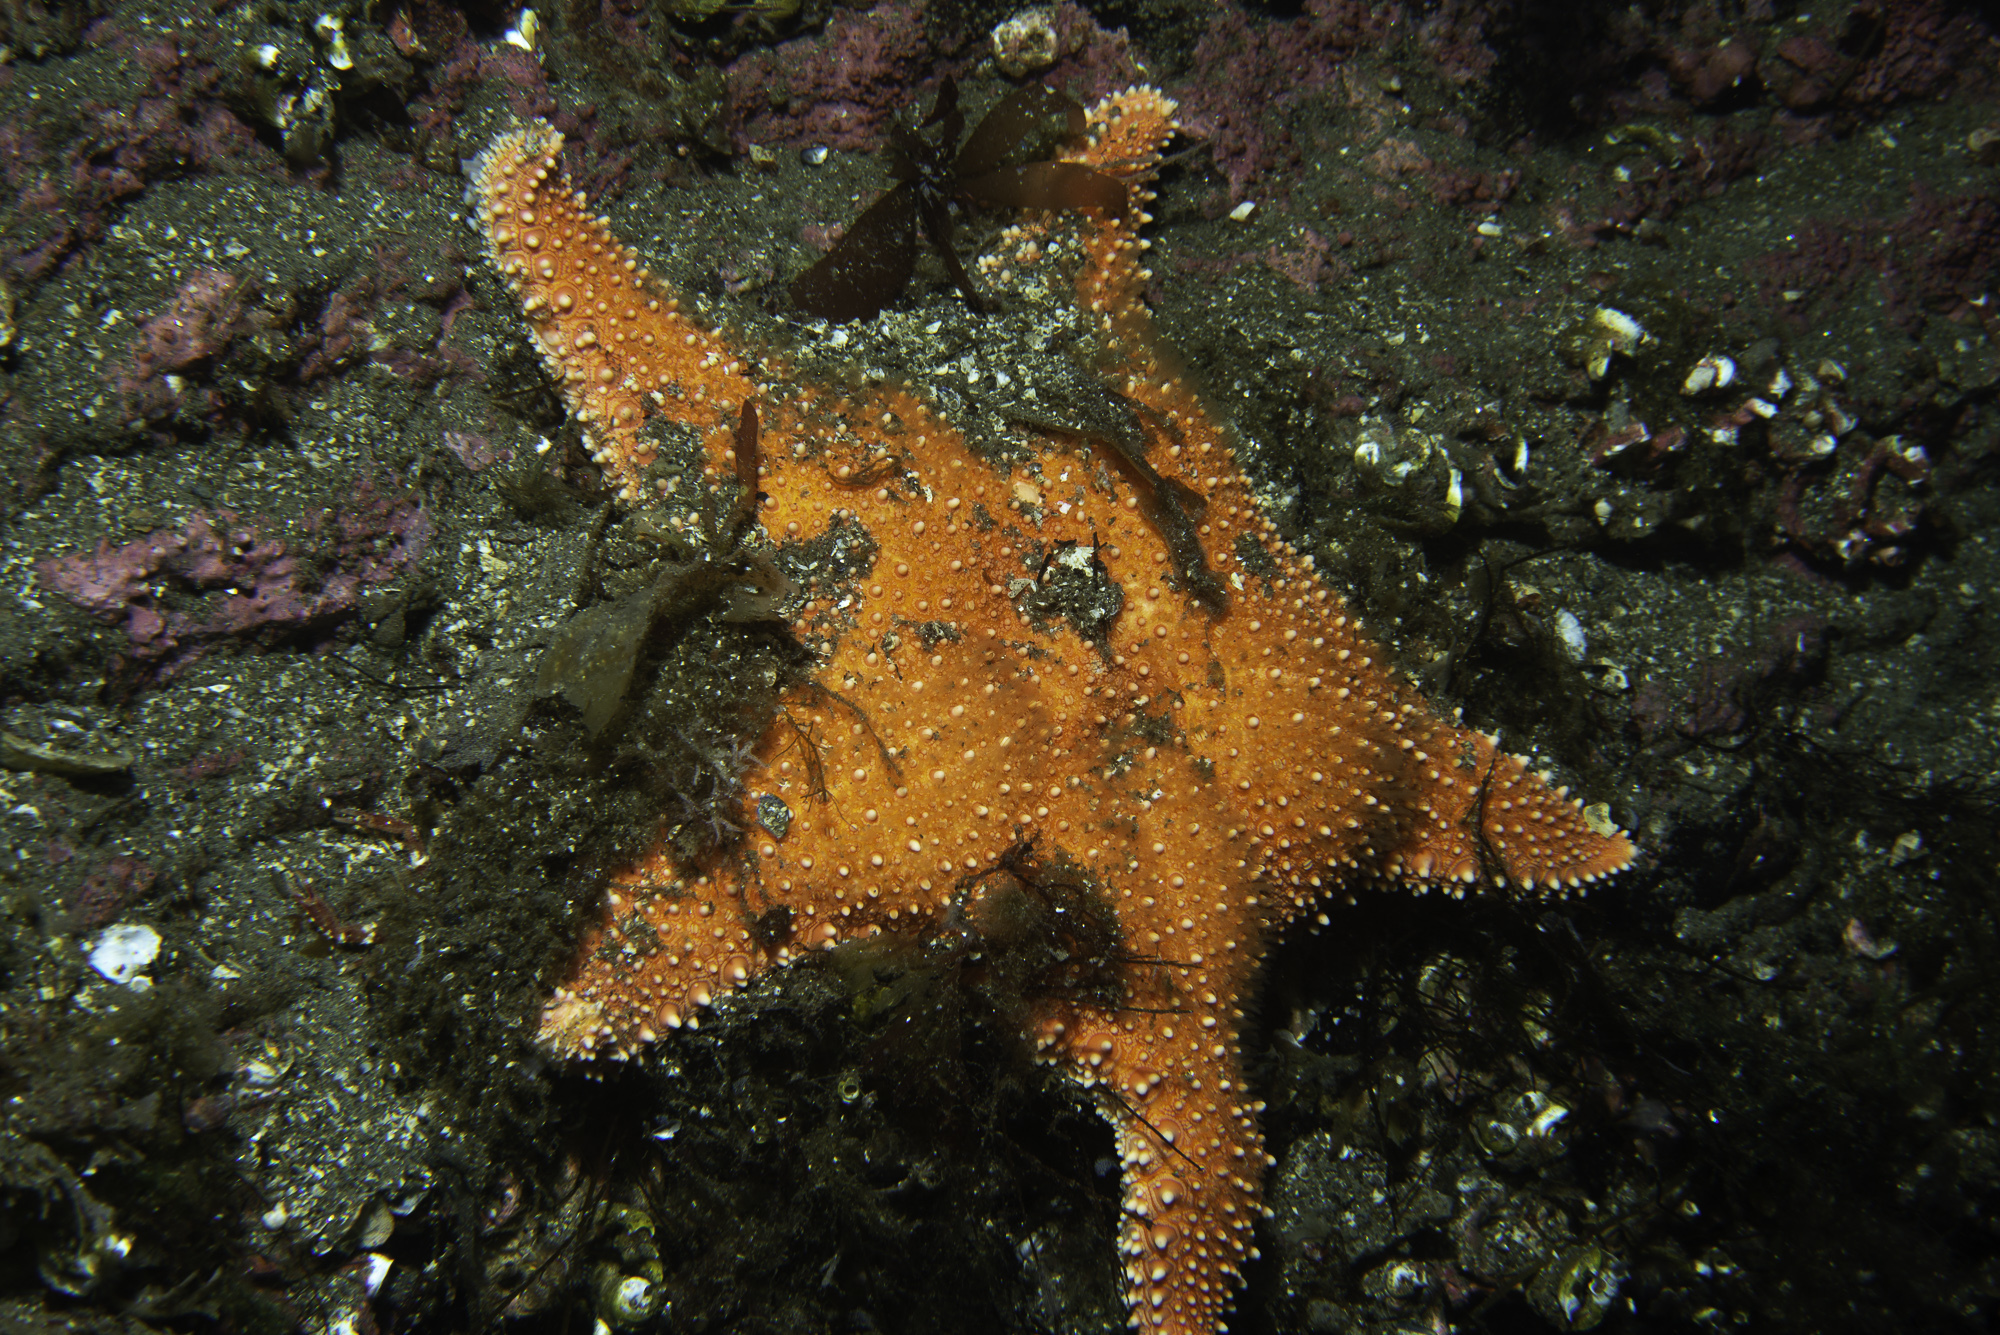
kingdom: Animalia
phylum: Echinodermata
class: Asteroidea
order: Valvatida
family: Goniasteridae
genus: Hippasteria
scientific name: Hippasteria phrygiana
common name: Arctic cushion star
